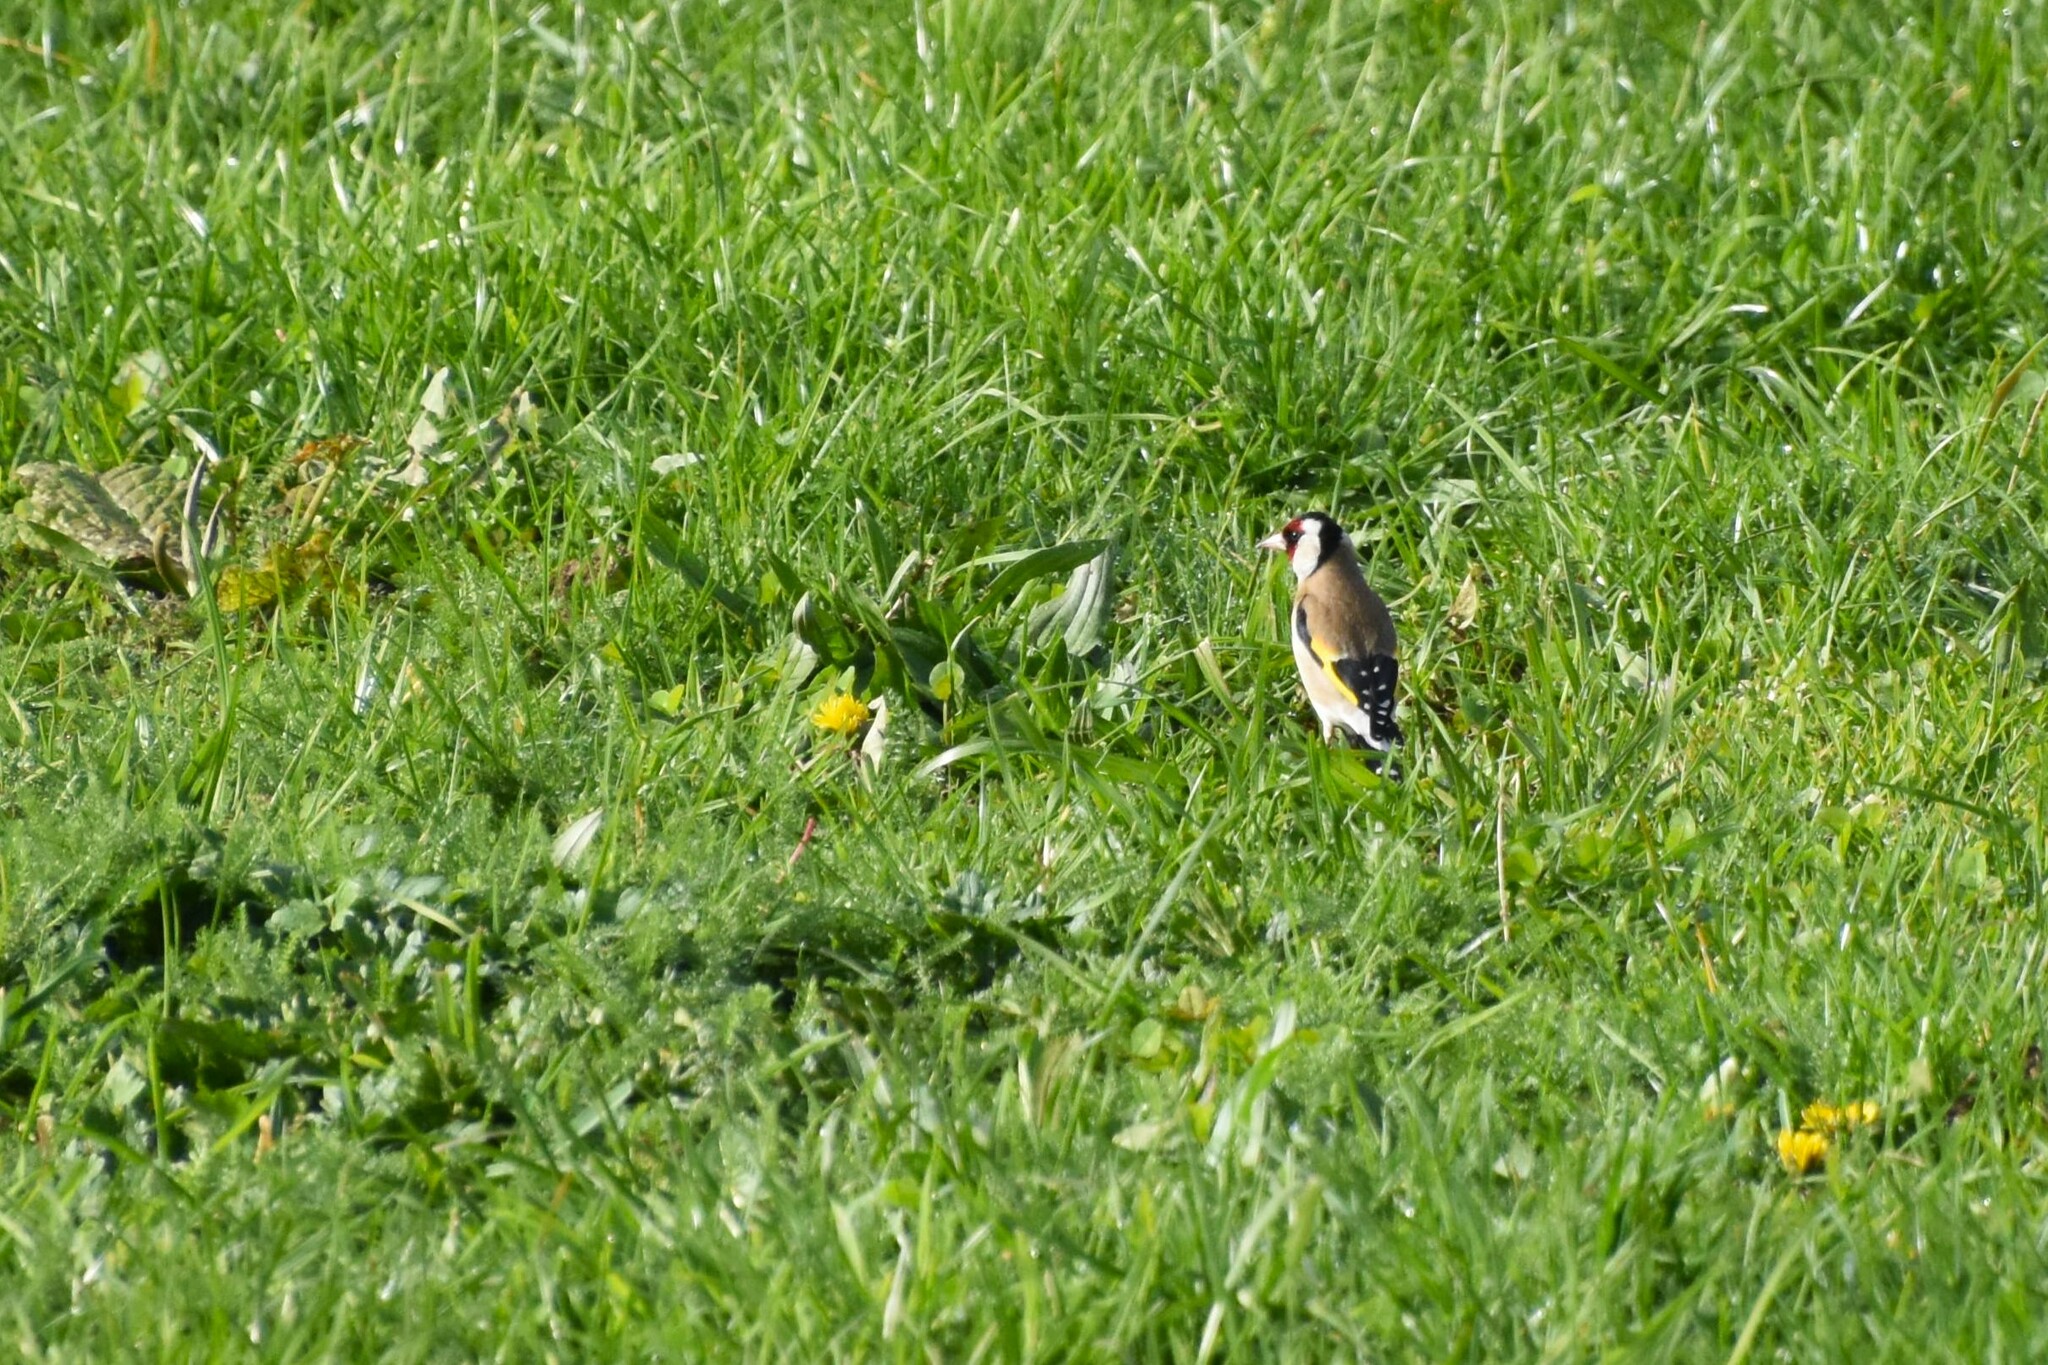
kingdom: Animalia
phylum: Chordata
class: Aves
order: Passeriformes
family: Fringillidae
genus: Carduelis
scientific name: Carduelis carduelis
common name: European goldfinch
